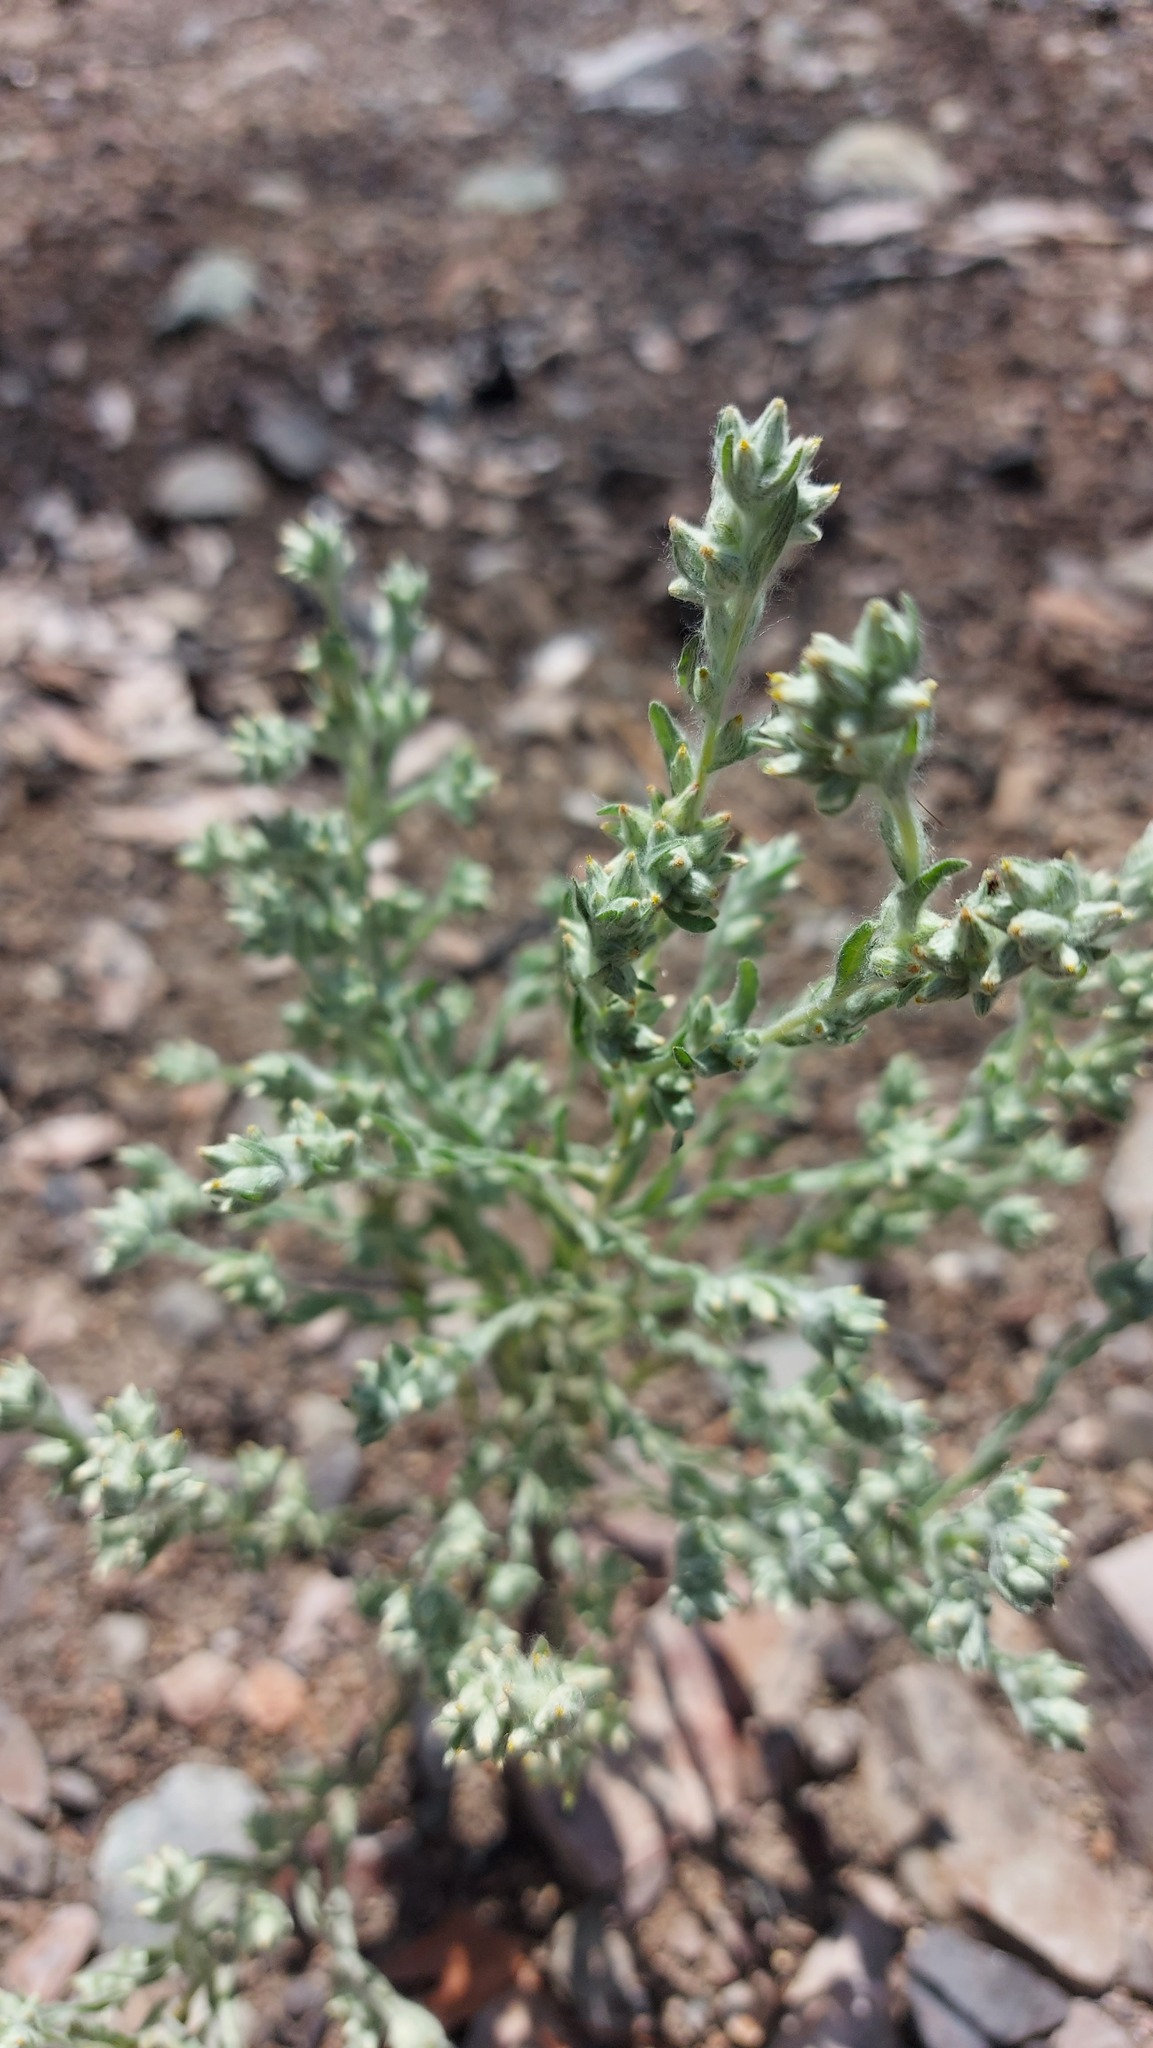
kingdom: Plantae
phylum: Tracheophyta
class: Magnoliopsida
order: Asterales
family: Asteraceae
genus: Filago
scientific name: Filago arvensis
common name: Field cudweed
